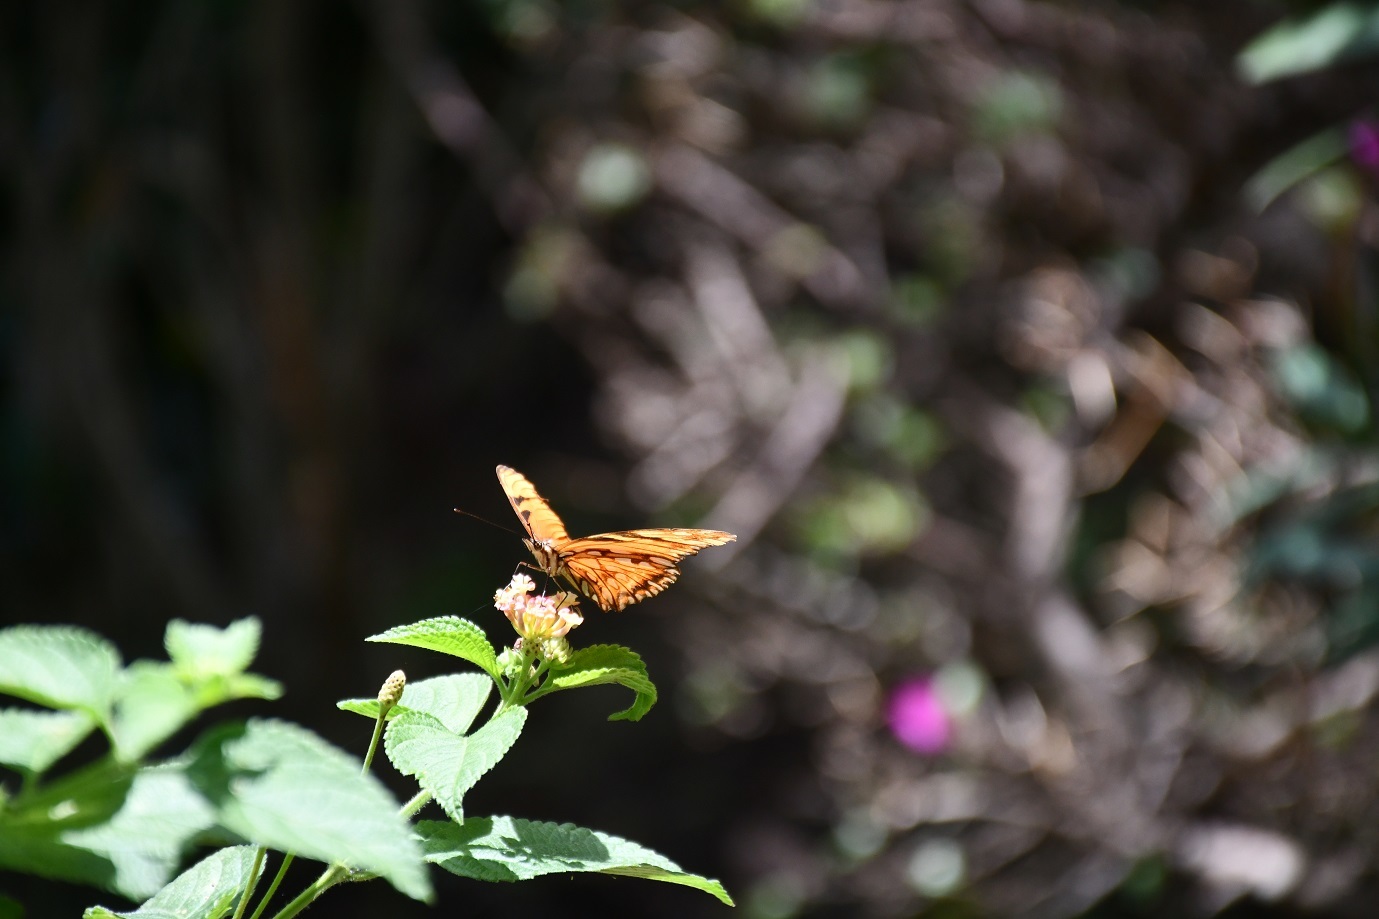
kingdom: Animalia
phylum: Arthropoda
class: Insecta
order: Lepidoptera
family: Nymphalidae
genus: Dione
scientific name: Dione juno
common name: Juno silverspot
